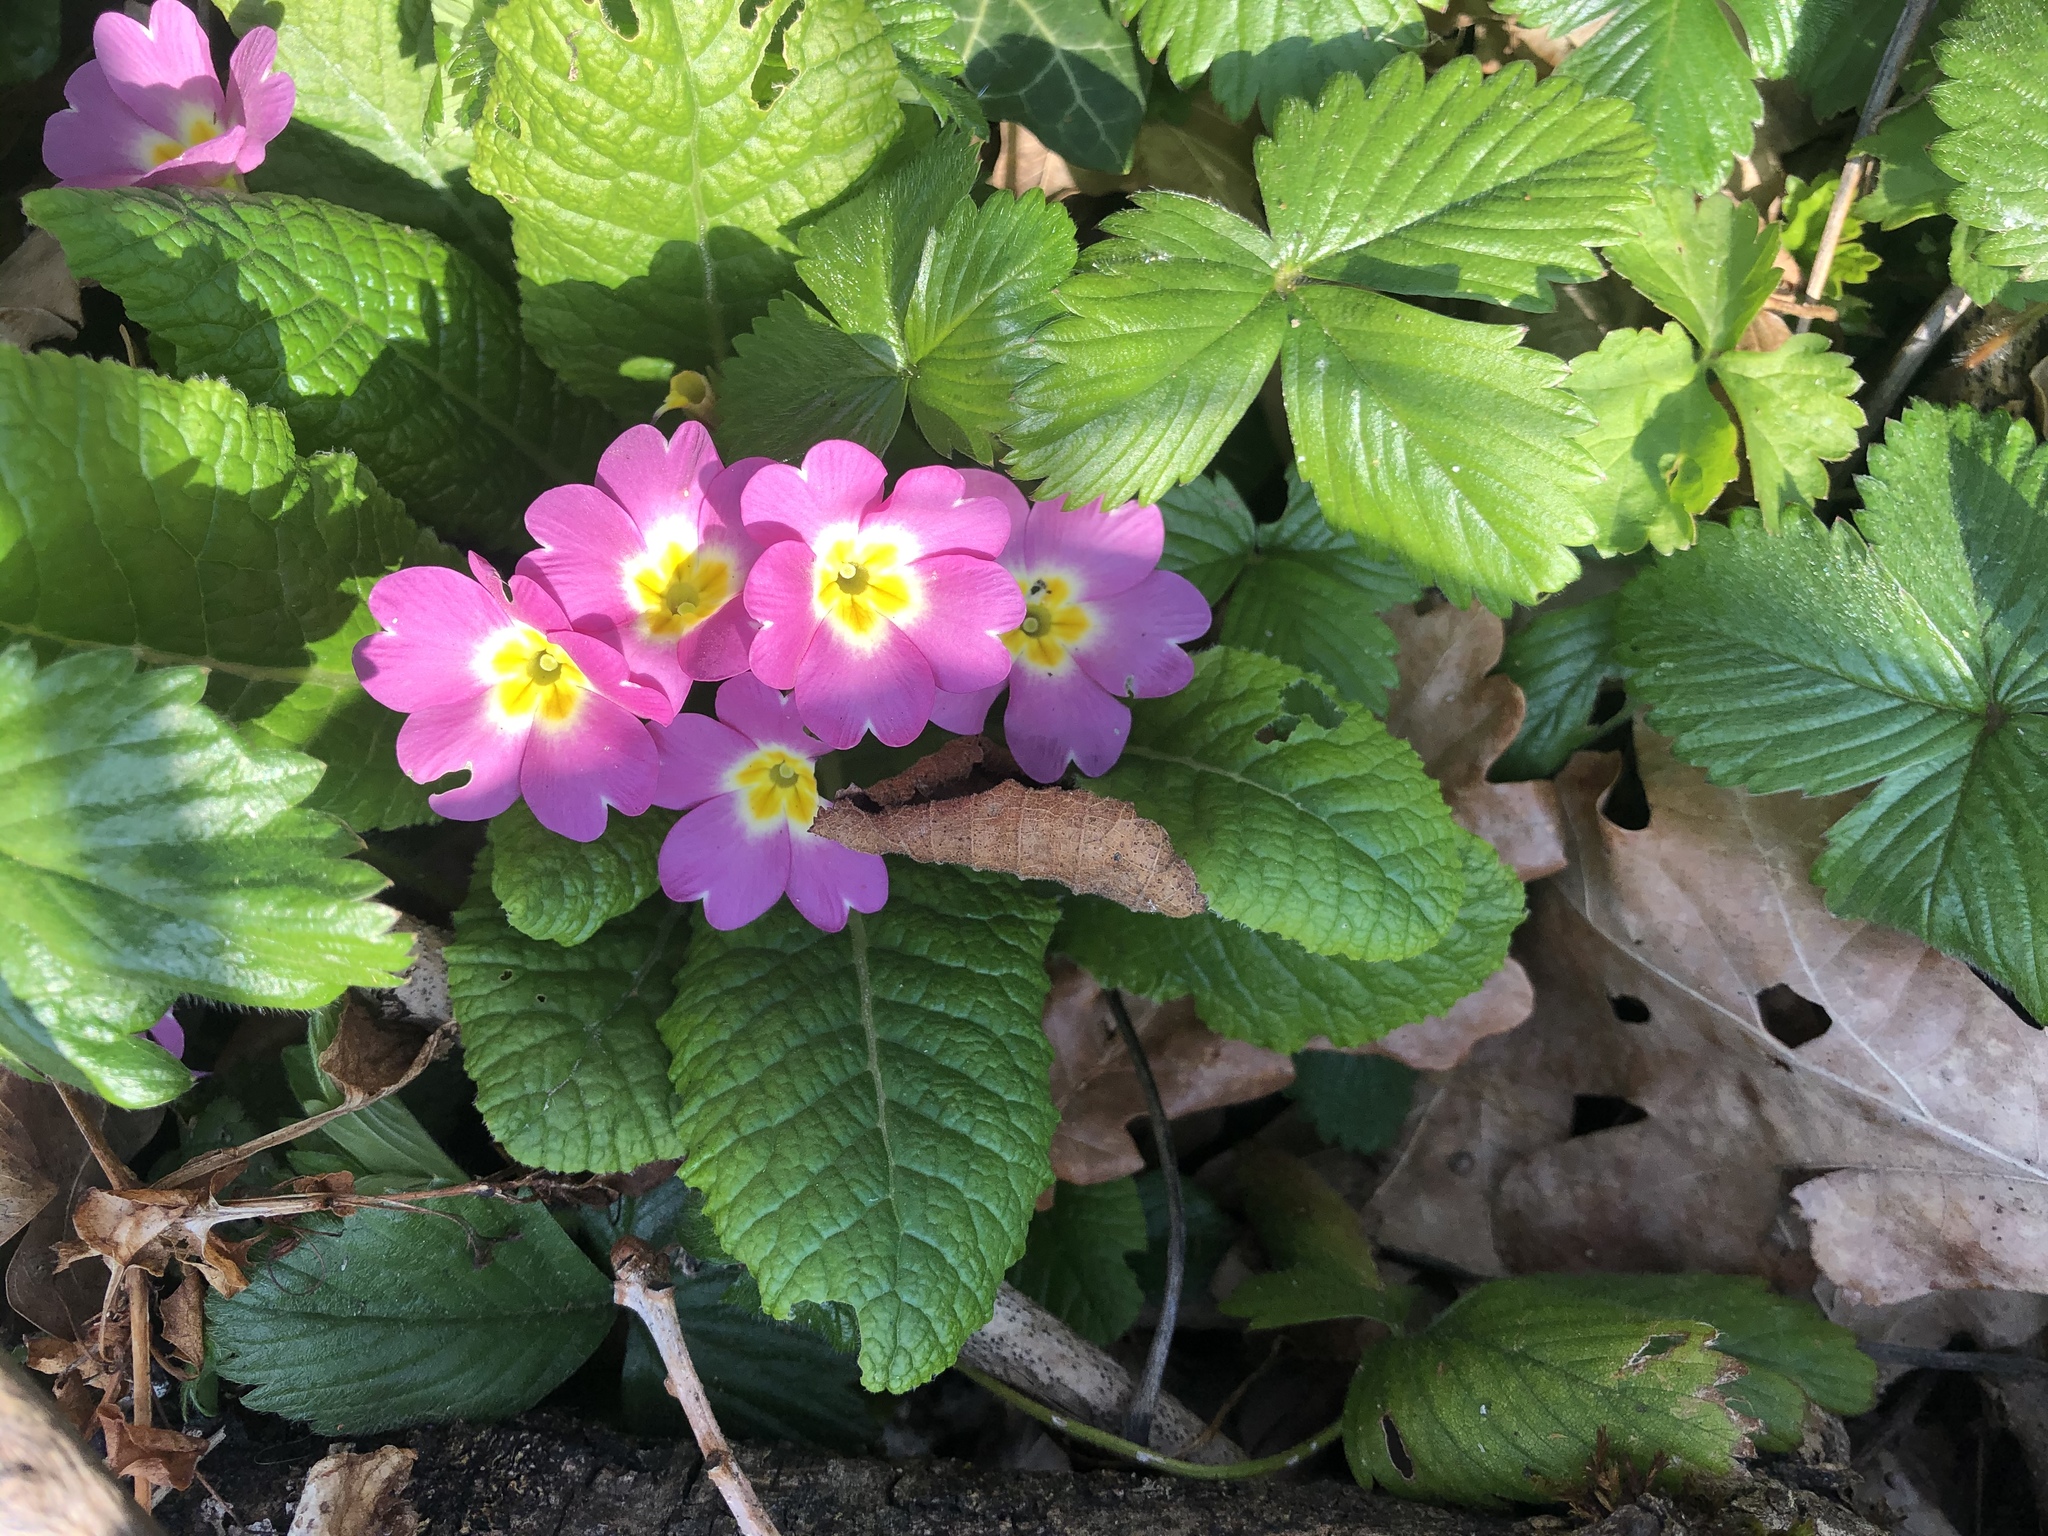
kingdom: Plantae
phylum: Tracheophyta
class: Magnoliopsida
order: Ericales
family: Primulaceae
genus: Primula
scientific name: Primula vulgaris
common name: Primrose
